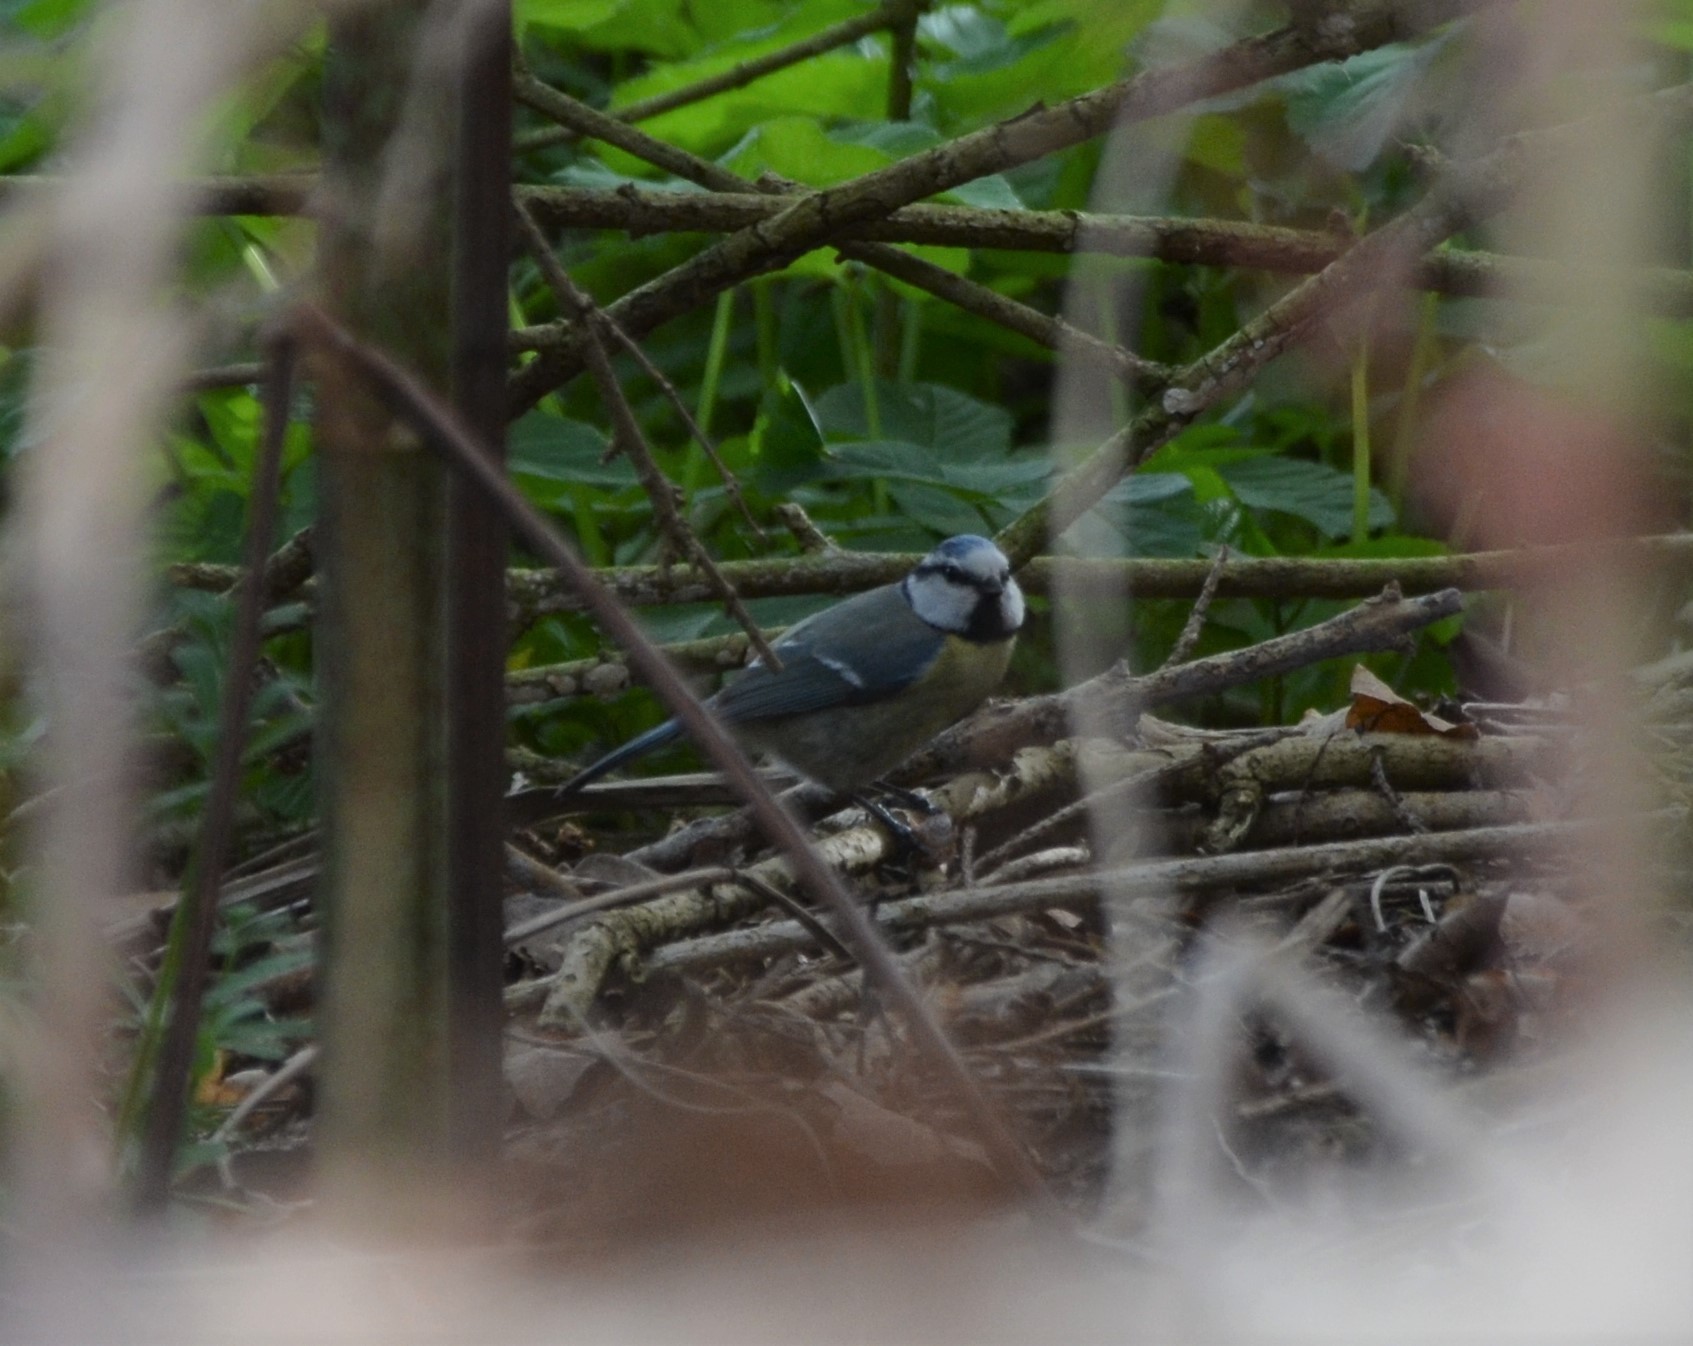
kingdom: Animalia
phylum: Chordata
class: Aves
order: Passeriformes
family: Paridae
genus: Cyanistes
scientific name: Cyanistes caeruleus
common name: Eurasian blue tit
